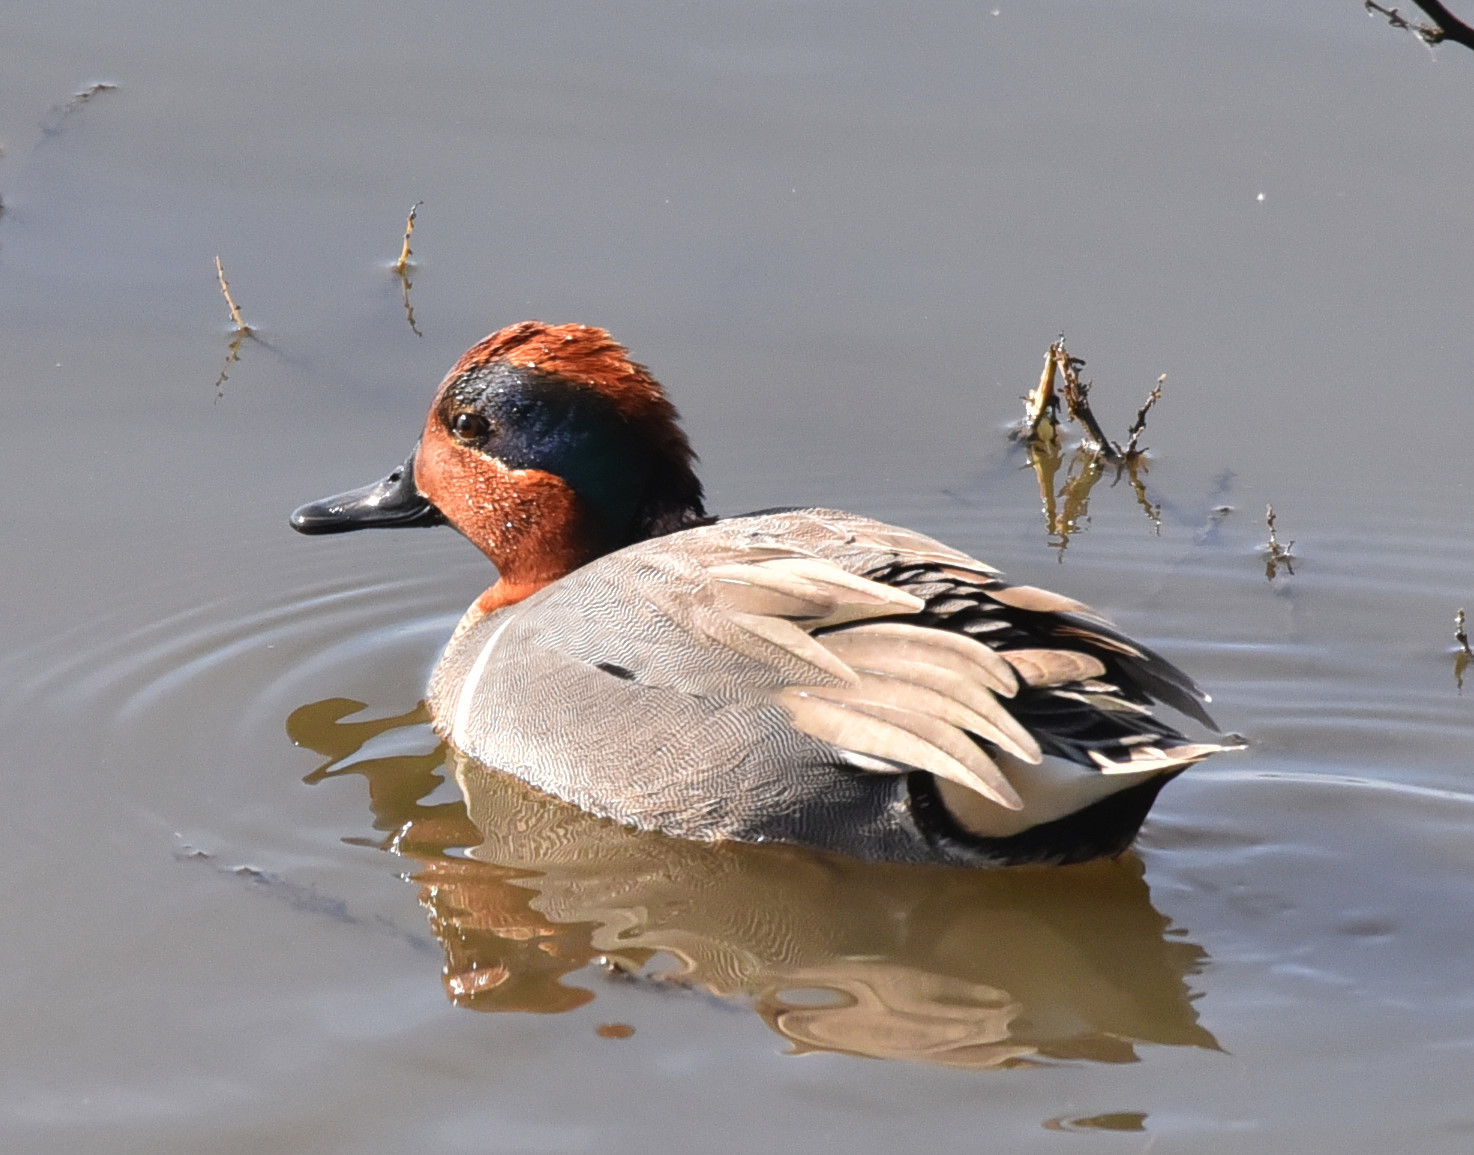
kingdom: Animalia
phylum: Chordata
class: Aves
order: Anseriformes
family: Anatidae
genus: Anas
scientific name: Anas crecca
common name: Eurasian teal
